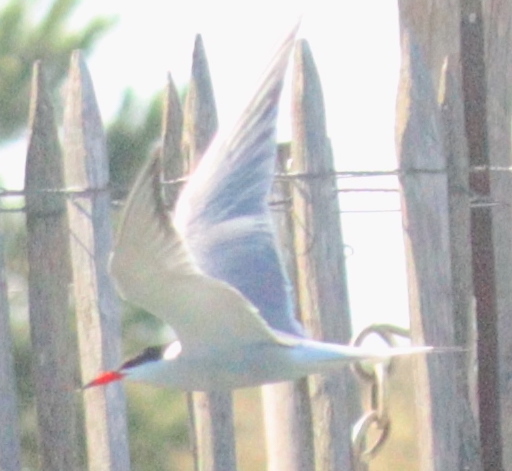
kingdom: Animalia
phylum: Chordata
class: Aves
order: Charadriiformes
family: Laridae
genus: Sterna
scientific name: Sterna hirundo
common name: Common tern
